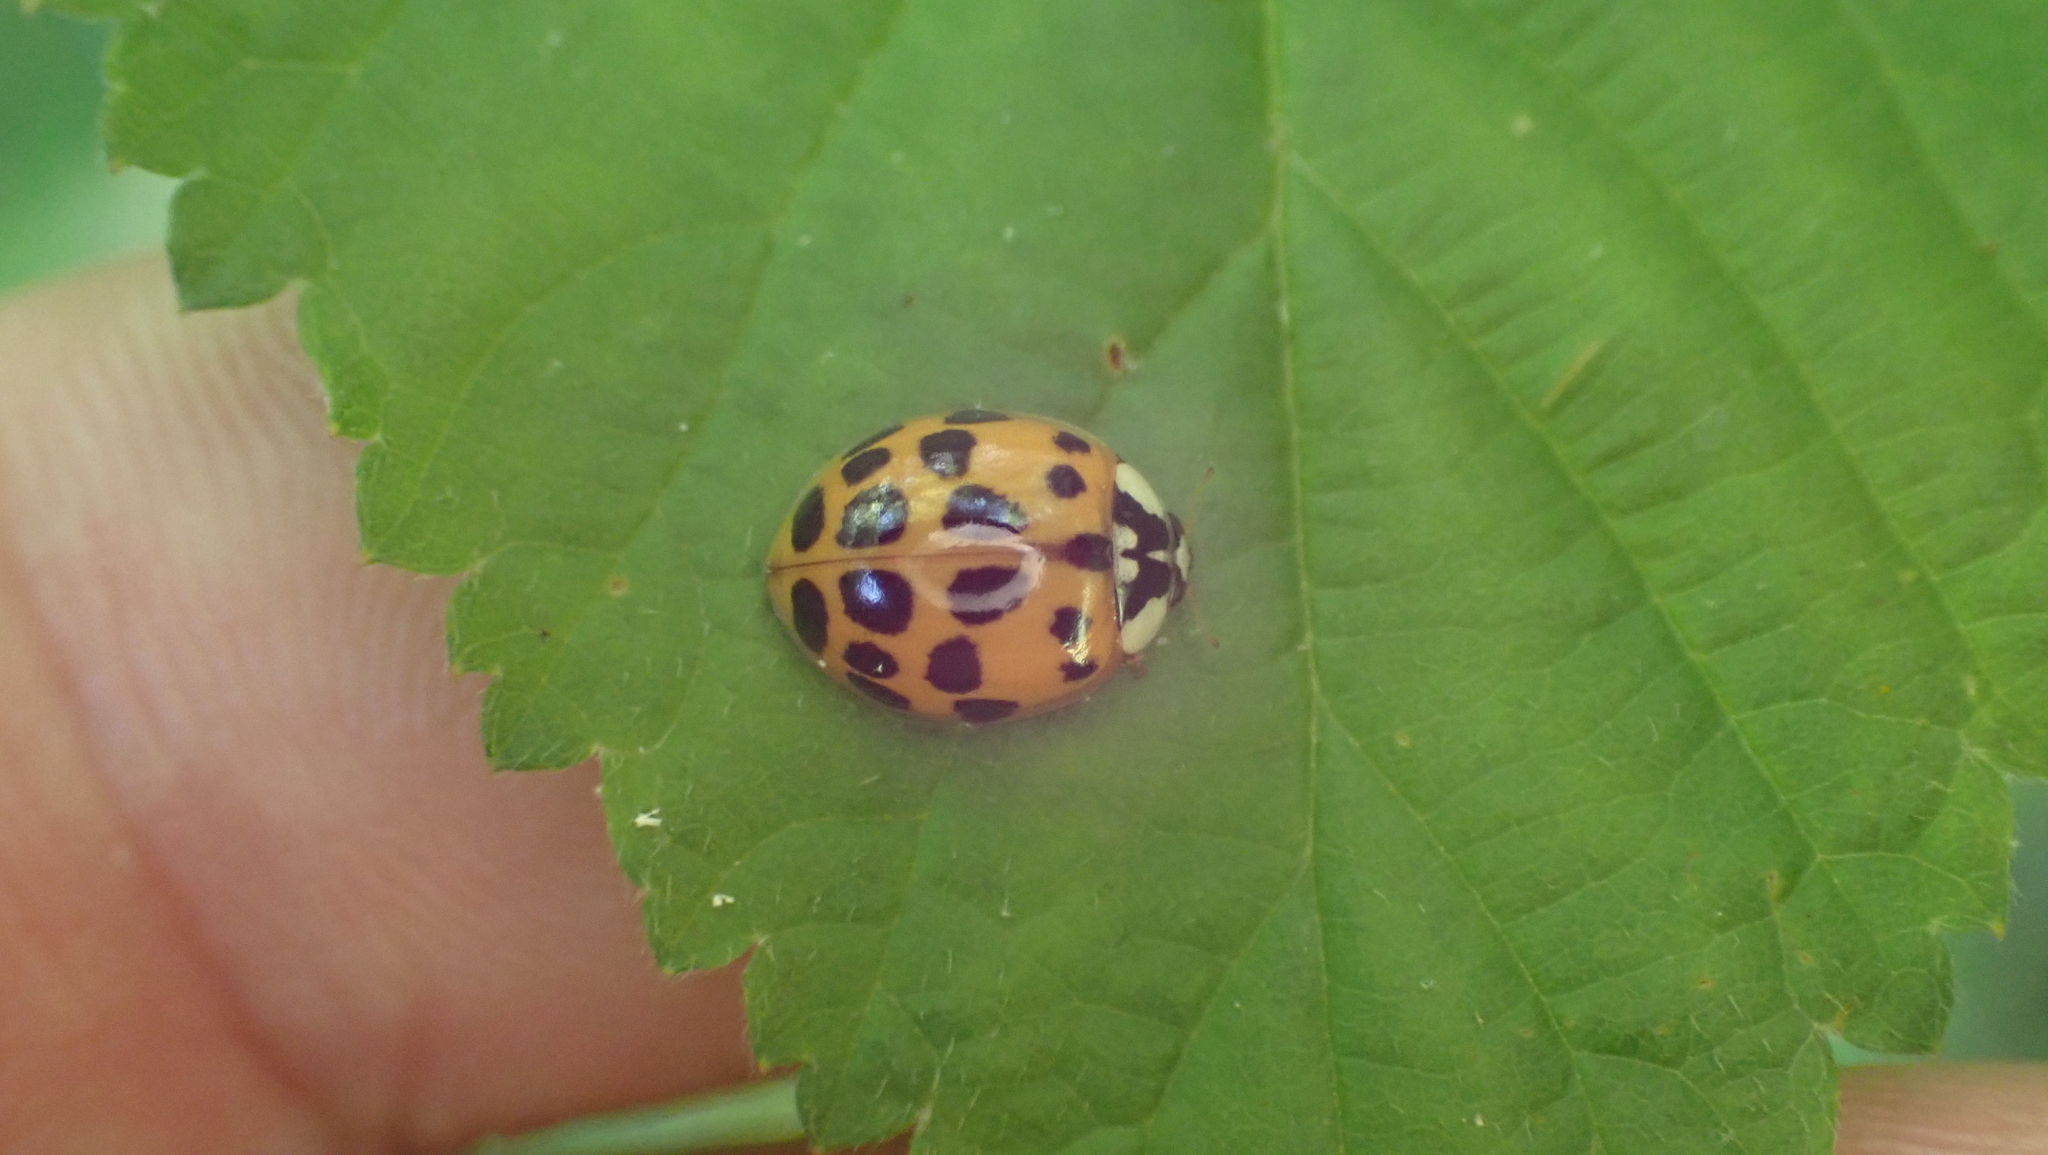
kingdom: Animalia
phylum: Arthropoda
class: Insecta
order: Coleoptera
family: Coccinellidae
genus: Harmonia
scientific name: Harmonia axyridis
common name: Harlequin ladybird
